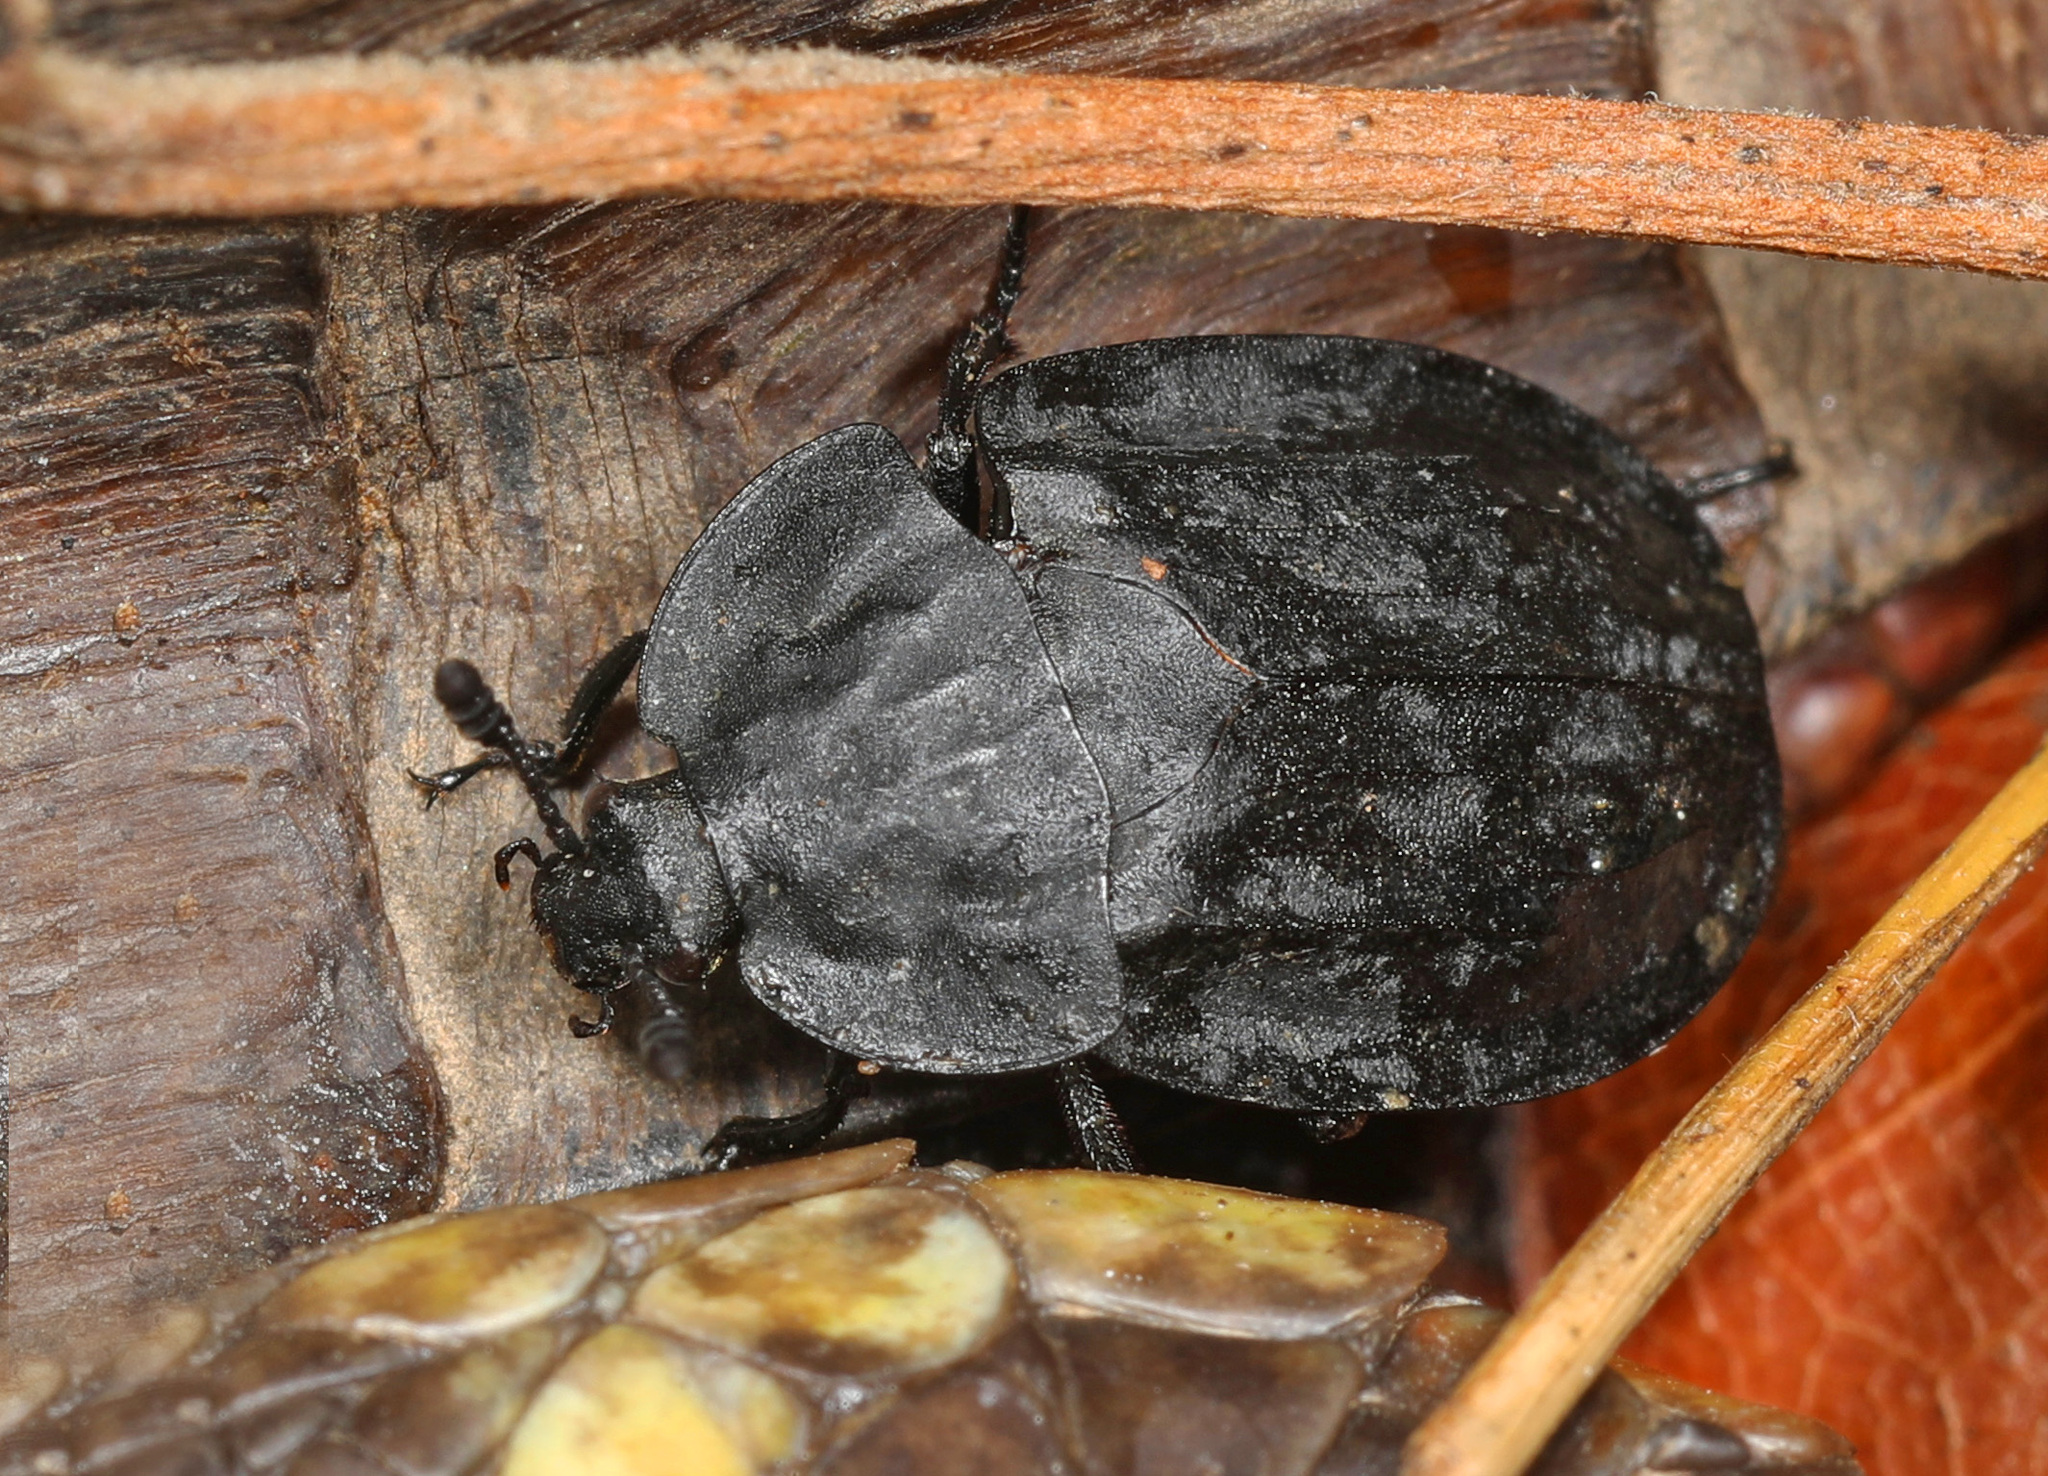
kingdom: Animalia
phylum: Arthropoda
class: Insecta
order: Coleoptera
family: Staphylinidae
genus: Oiceoptoma
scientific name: Oiceoptoma inaequale
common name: Ridged carrion beetle
